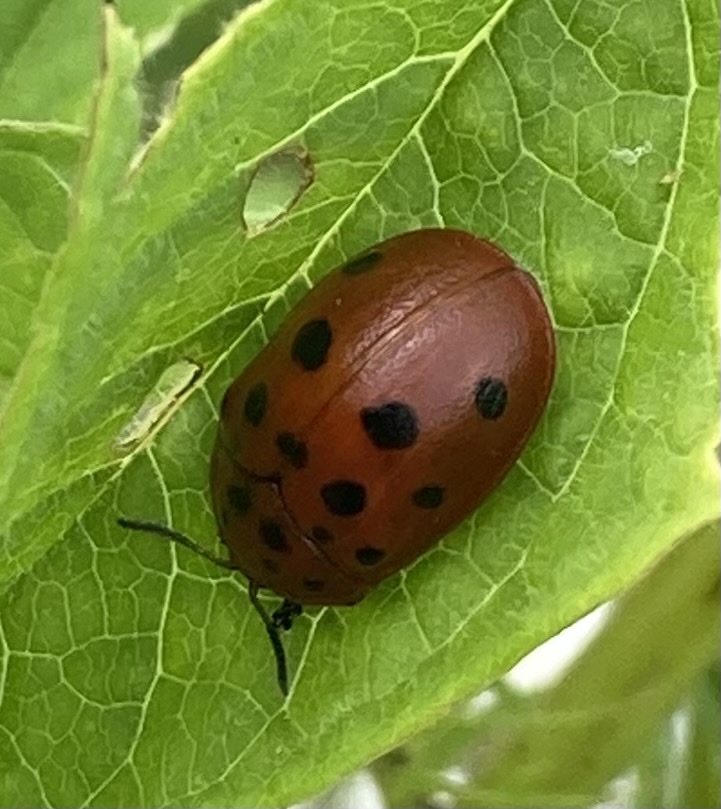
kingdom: Animalia
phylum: Arthropoda
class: Insecta
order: Coleoptera
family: Chrysomelidae
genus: Chelymorpha
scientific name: Chelymorpha cassidea
